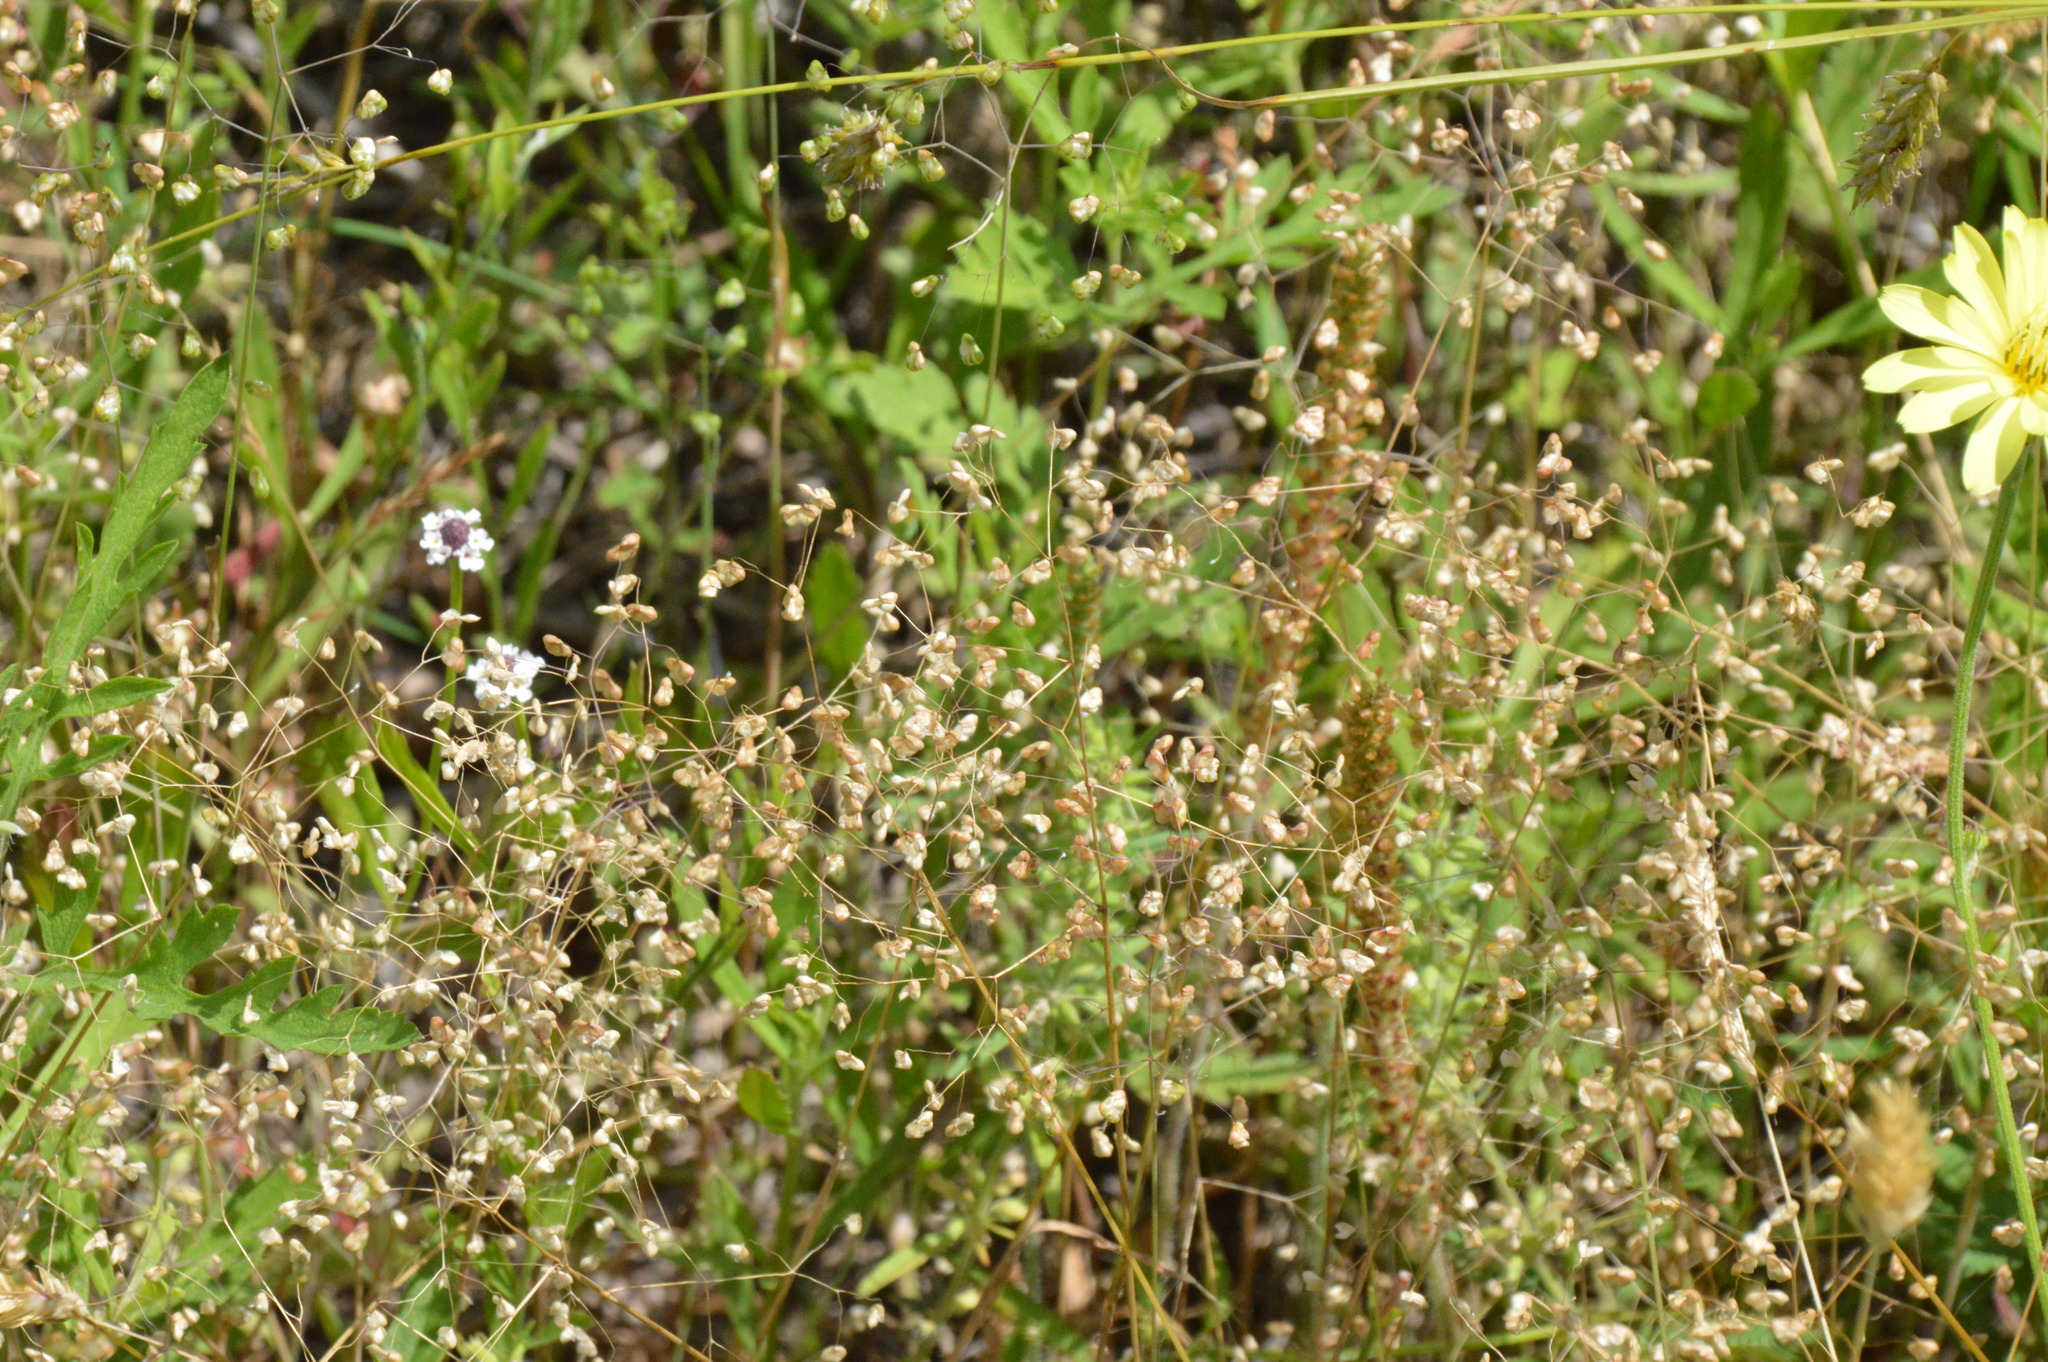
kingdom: Plantae
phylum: Tracheophyta
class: Liliopsida
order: Poales
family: Poaceae
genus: Briza
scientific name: Briza minor
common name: Lesser quaking-grass
